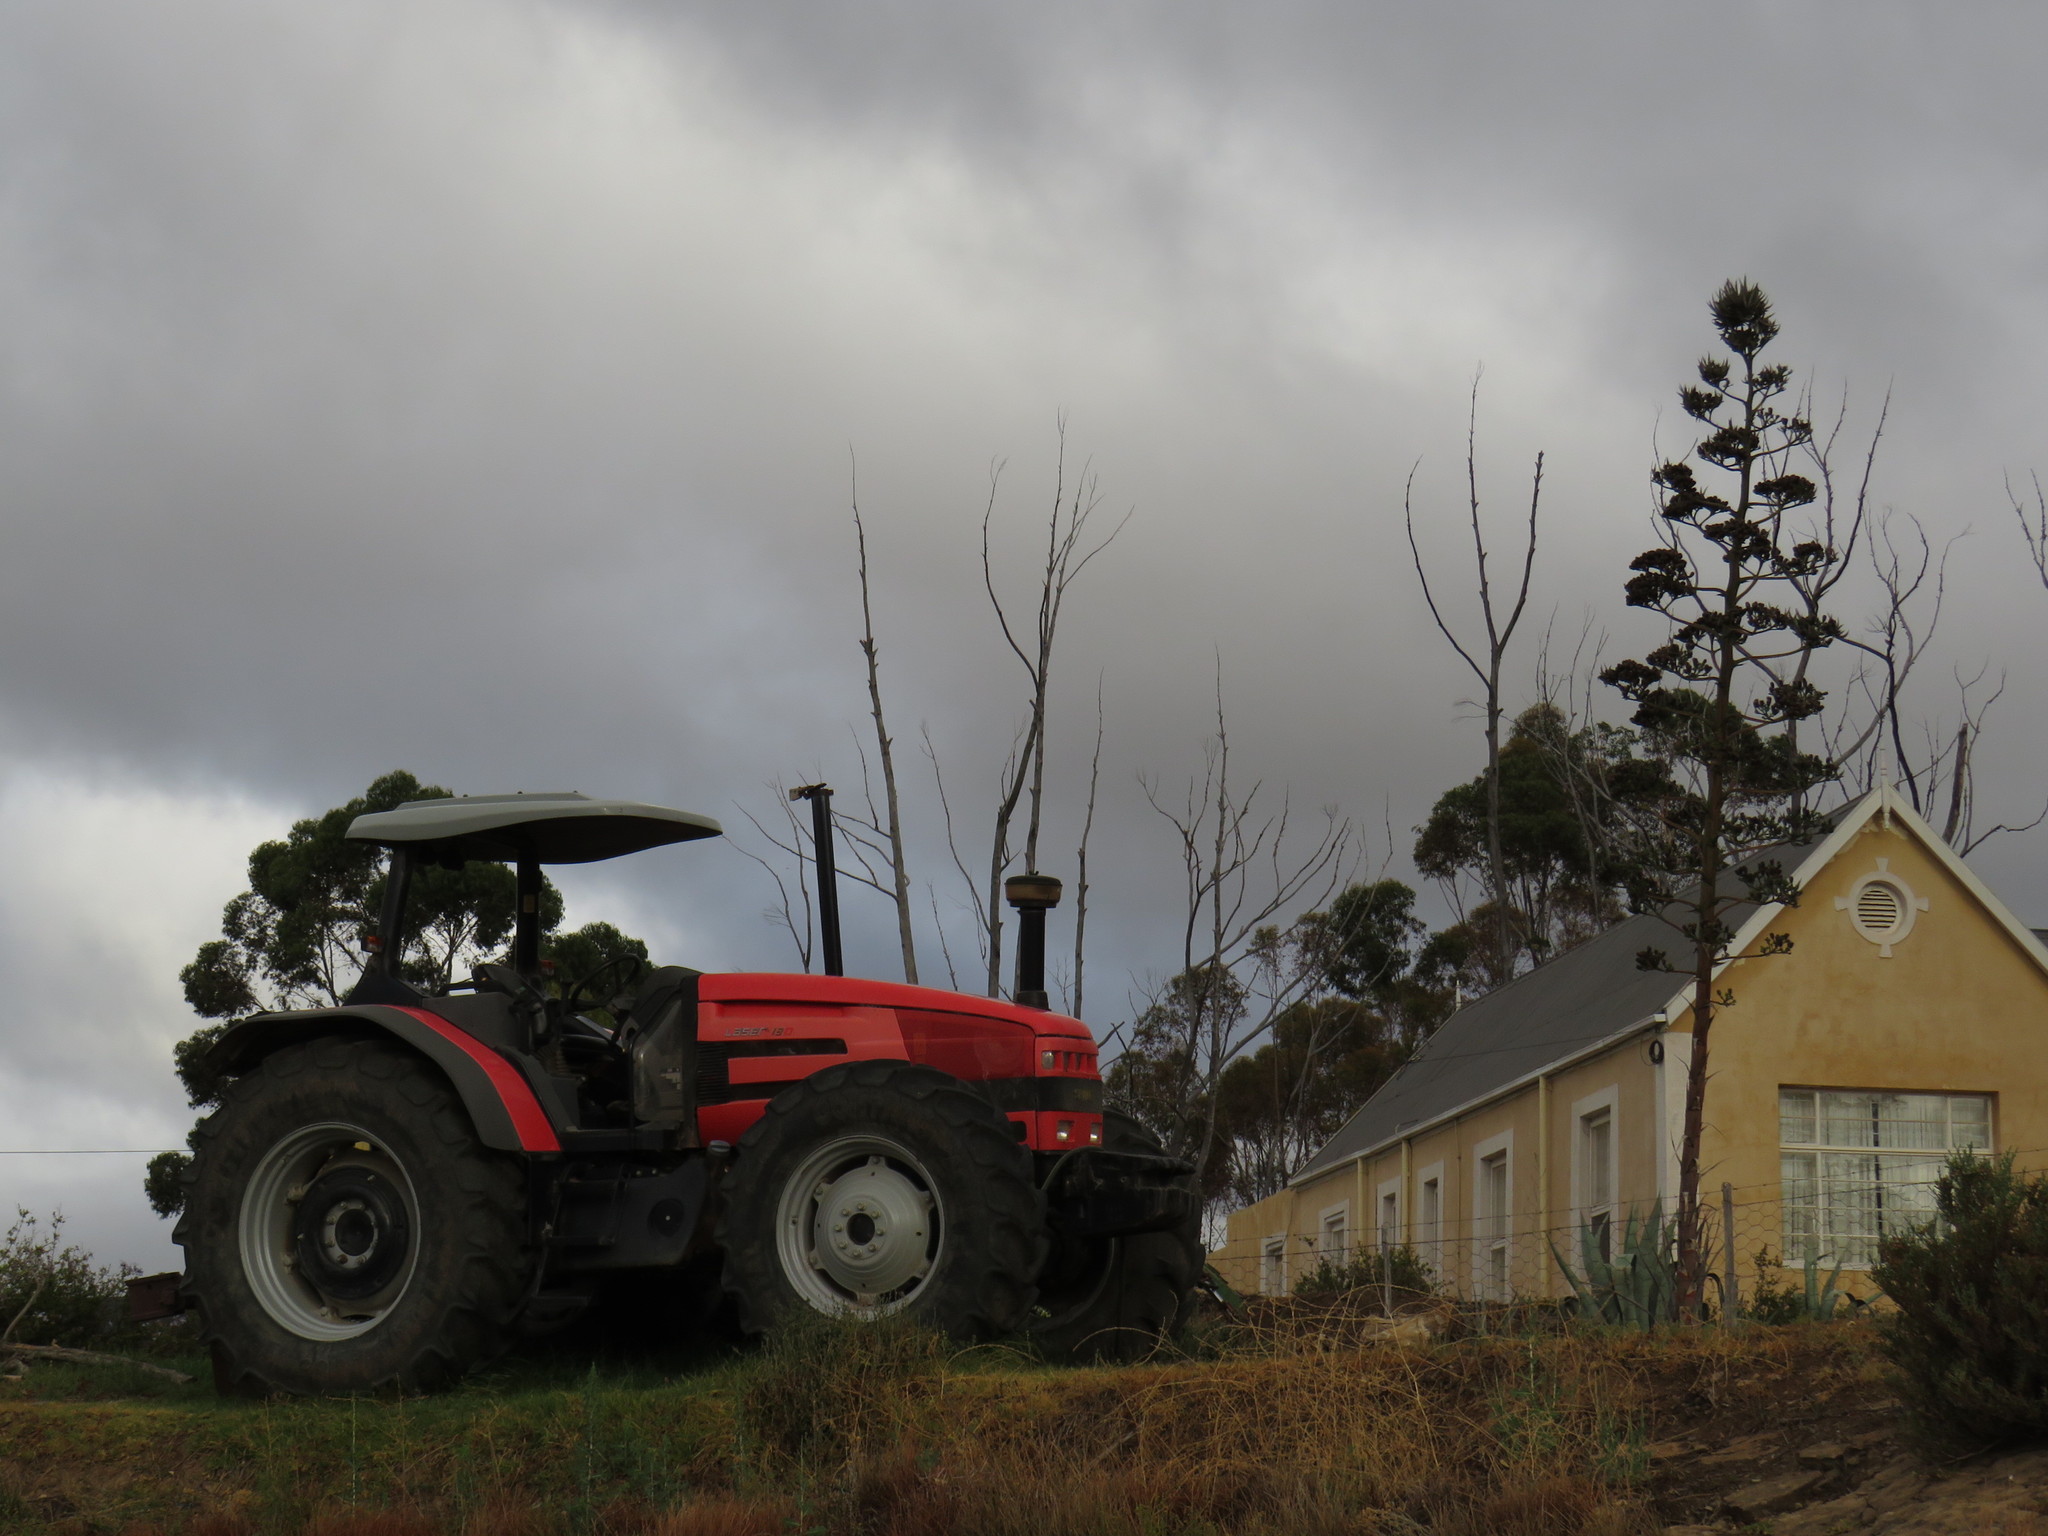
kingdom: Plantae
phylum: Tracheophyta
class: Liliopsida
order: Asparagales
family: Asparagaceae
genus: Agave
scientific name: Agave americana
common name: Centuryplant
